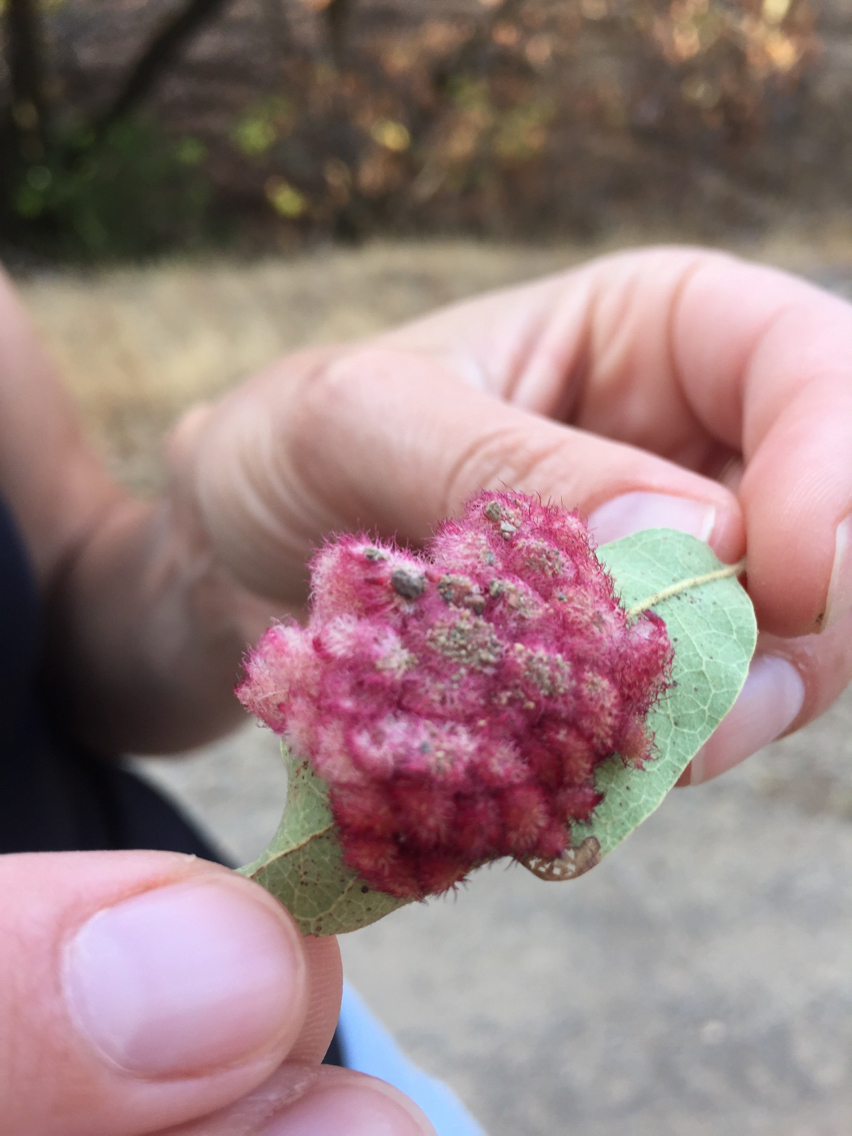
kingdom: Animalia
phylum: Arthropoda
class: Insecta
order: Hymenoptera
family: Cynipidae
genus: Andricus
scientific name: Andricus
